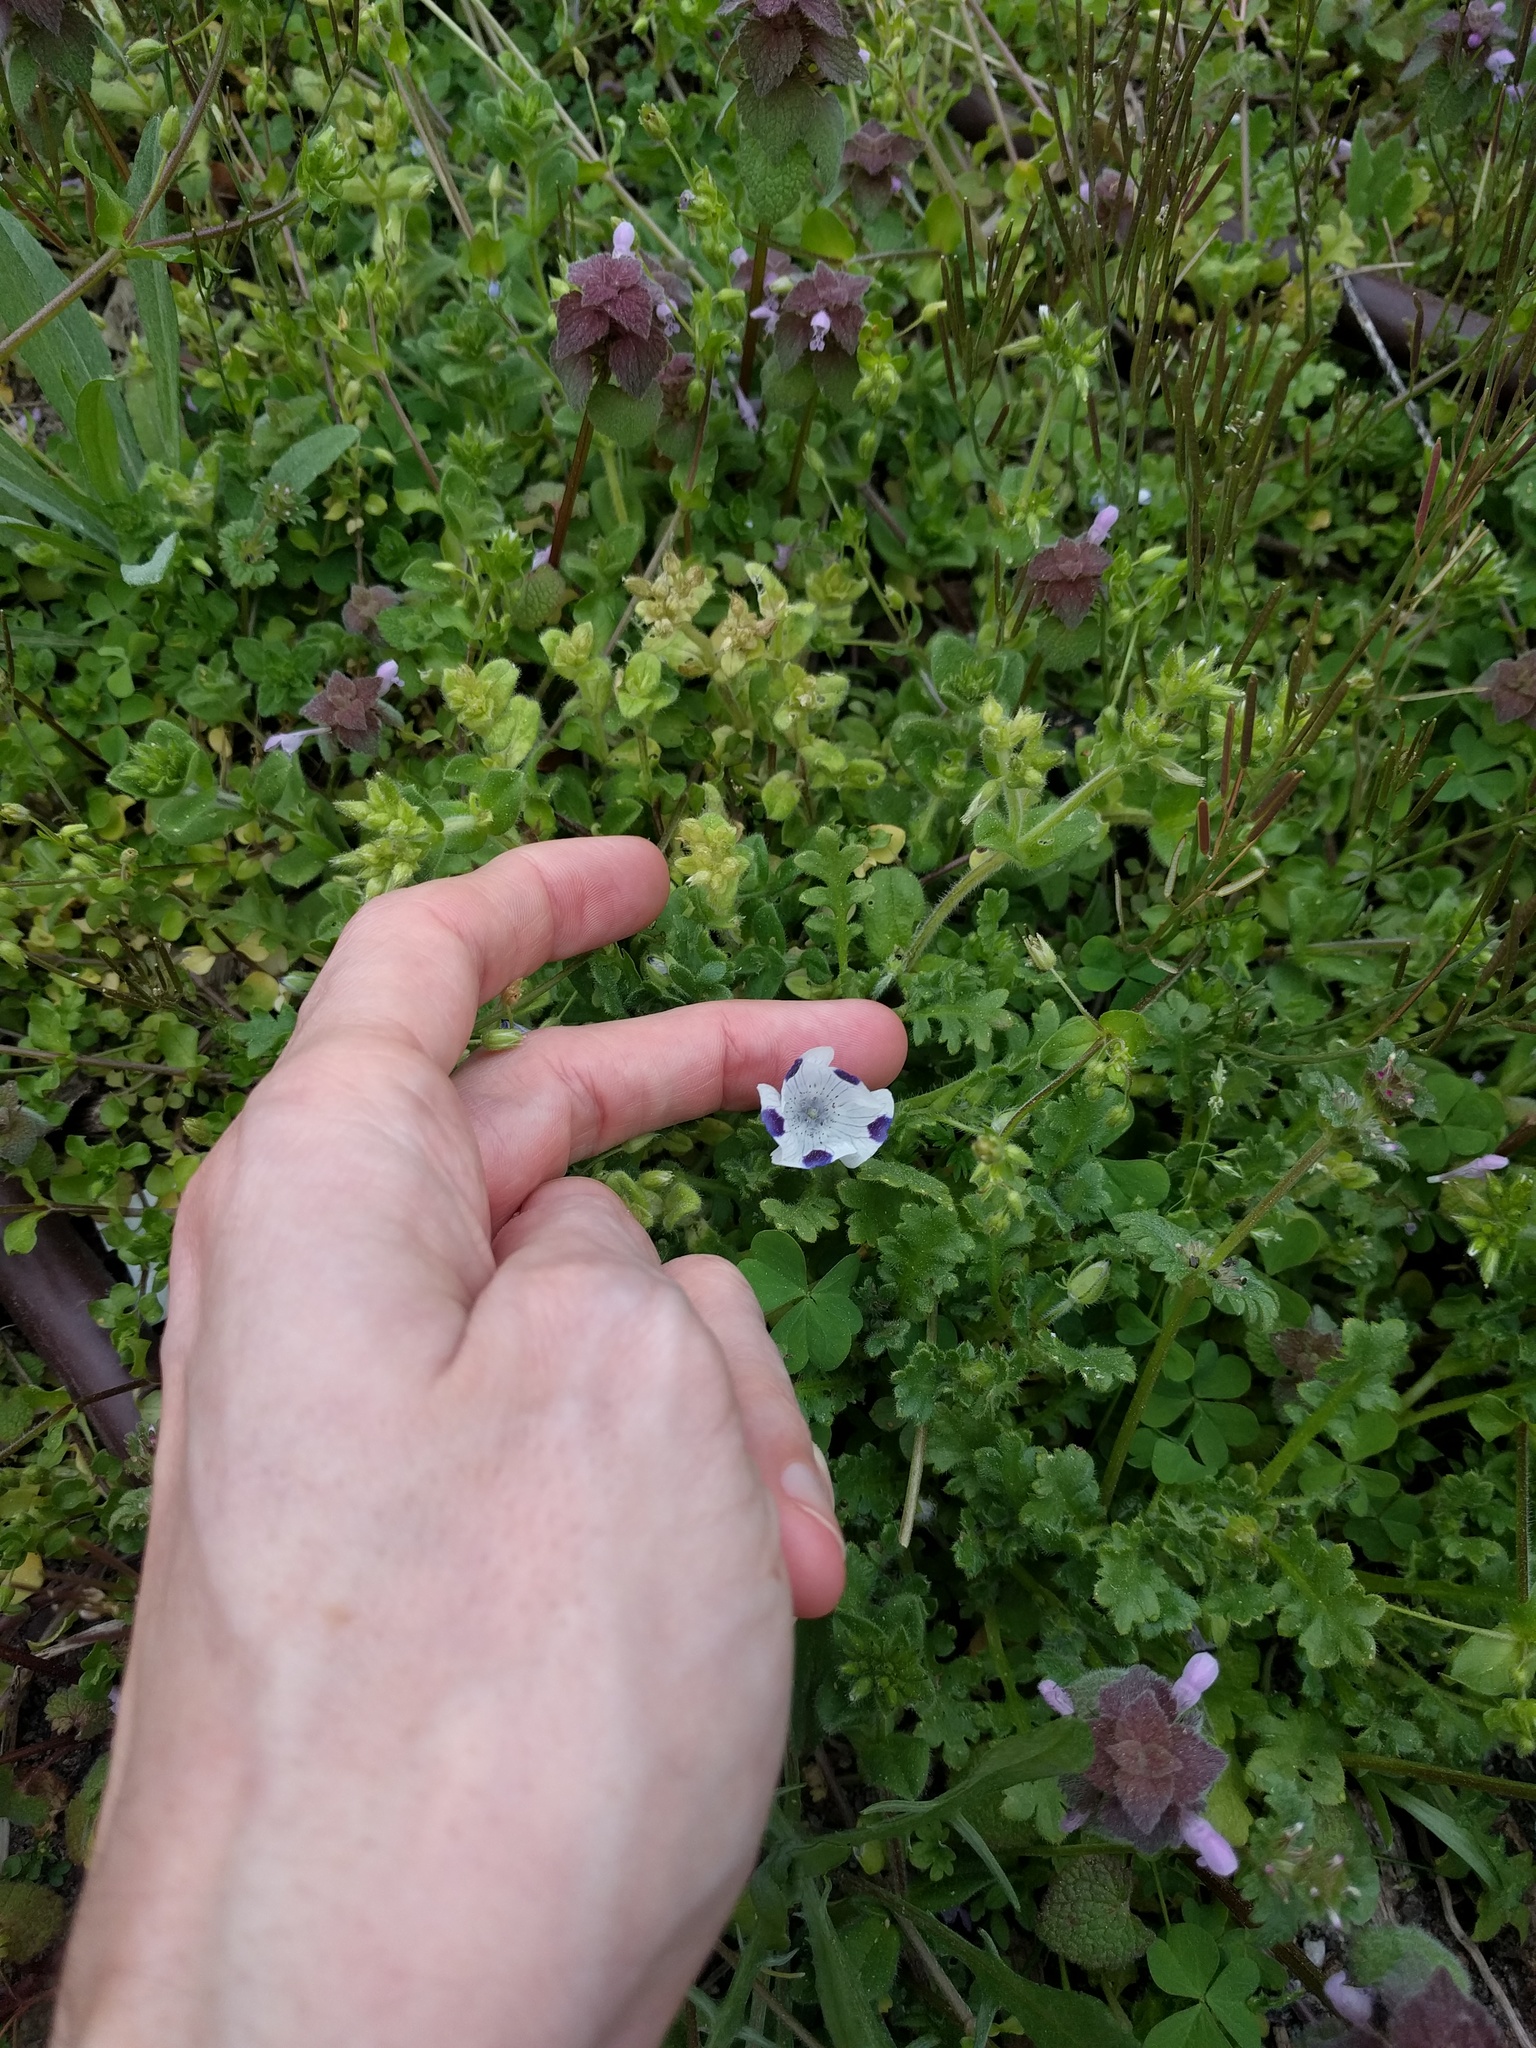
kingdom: Plantae
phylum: Tracheophyta
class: Magnoliopsida
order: Boraginales
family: Hydrophyllaceae
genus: Nemophila
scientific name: Nemophila maculata
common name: Fivespot
